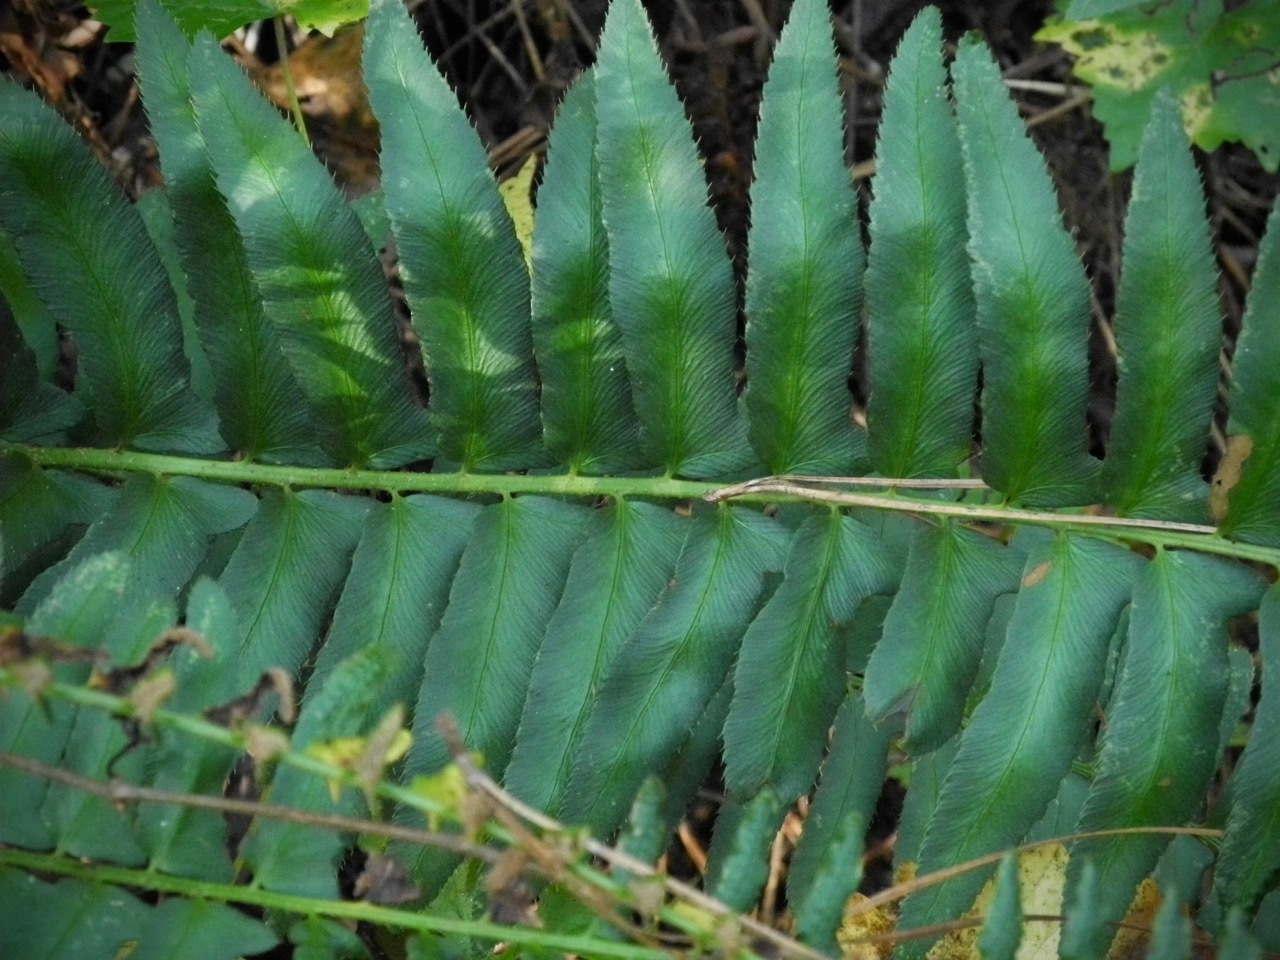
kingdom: Plantae
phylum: Tracheophyta
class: Polypodiopsida
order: Polypodiales
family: Dryopteridaceae
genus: Polystichum
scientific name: Polystichum acrostichoides
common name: Christmas fern
